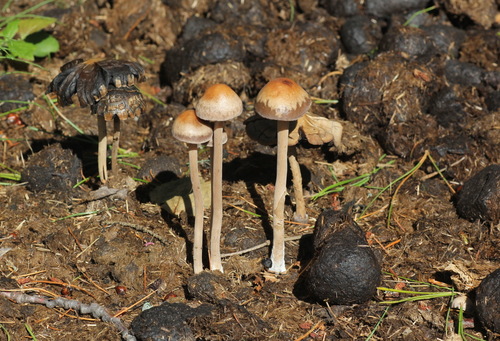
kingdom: Fungi
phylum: Basidiomycota
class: Agaricomycetes
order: Agaricales
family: Bolbitiaceae
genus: Panaeolus
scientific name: Panaeolus olivaceus
